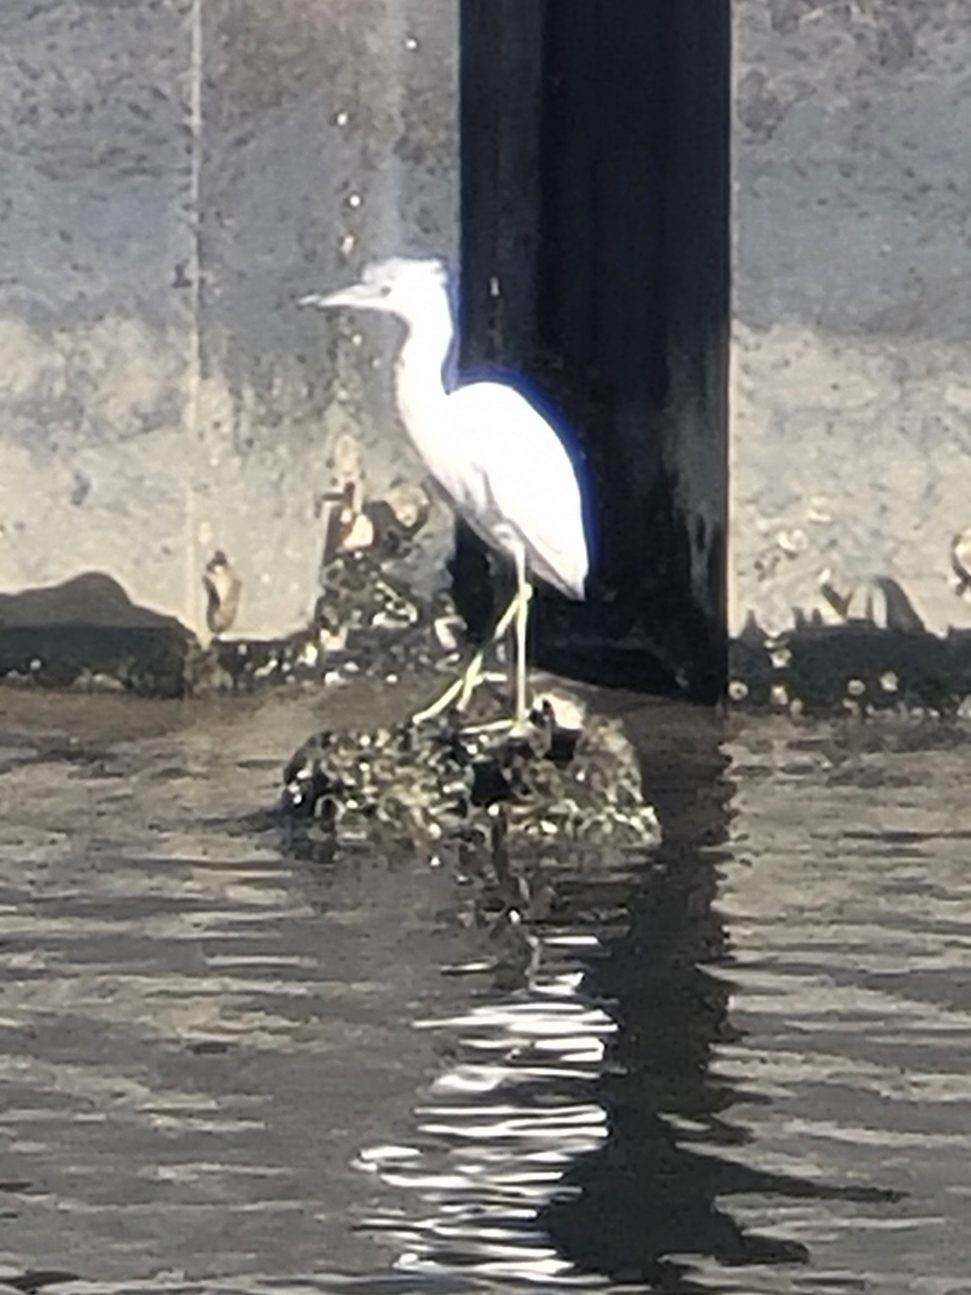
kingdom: Animalia
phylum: Chordata
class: Aves
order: Pelecaniformes
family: Ardeidae
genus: Egretta
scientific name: Egretta caerulea
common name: Little blue heron
